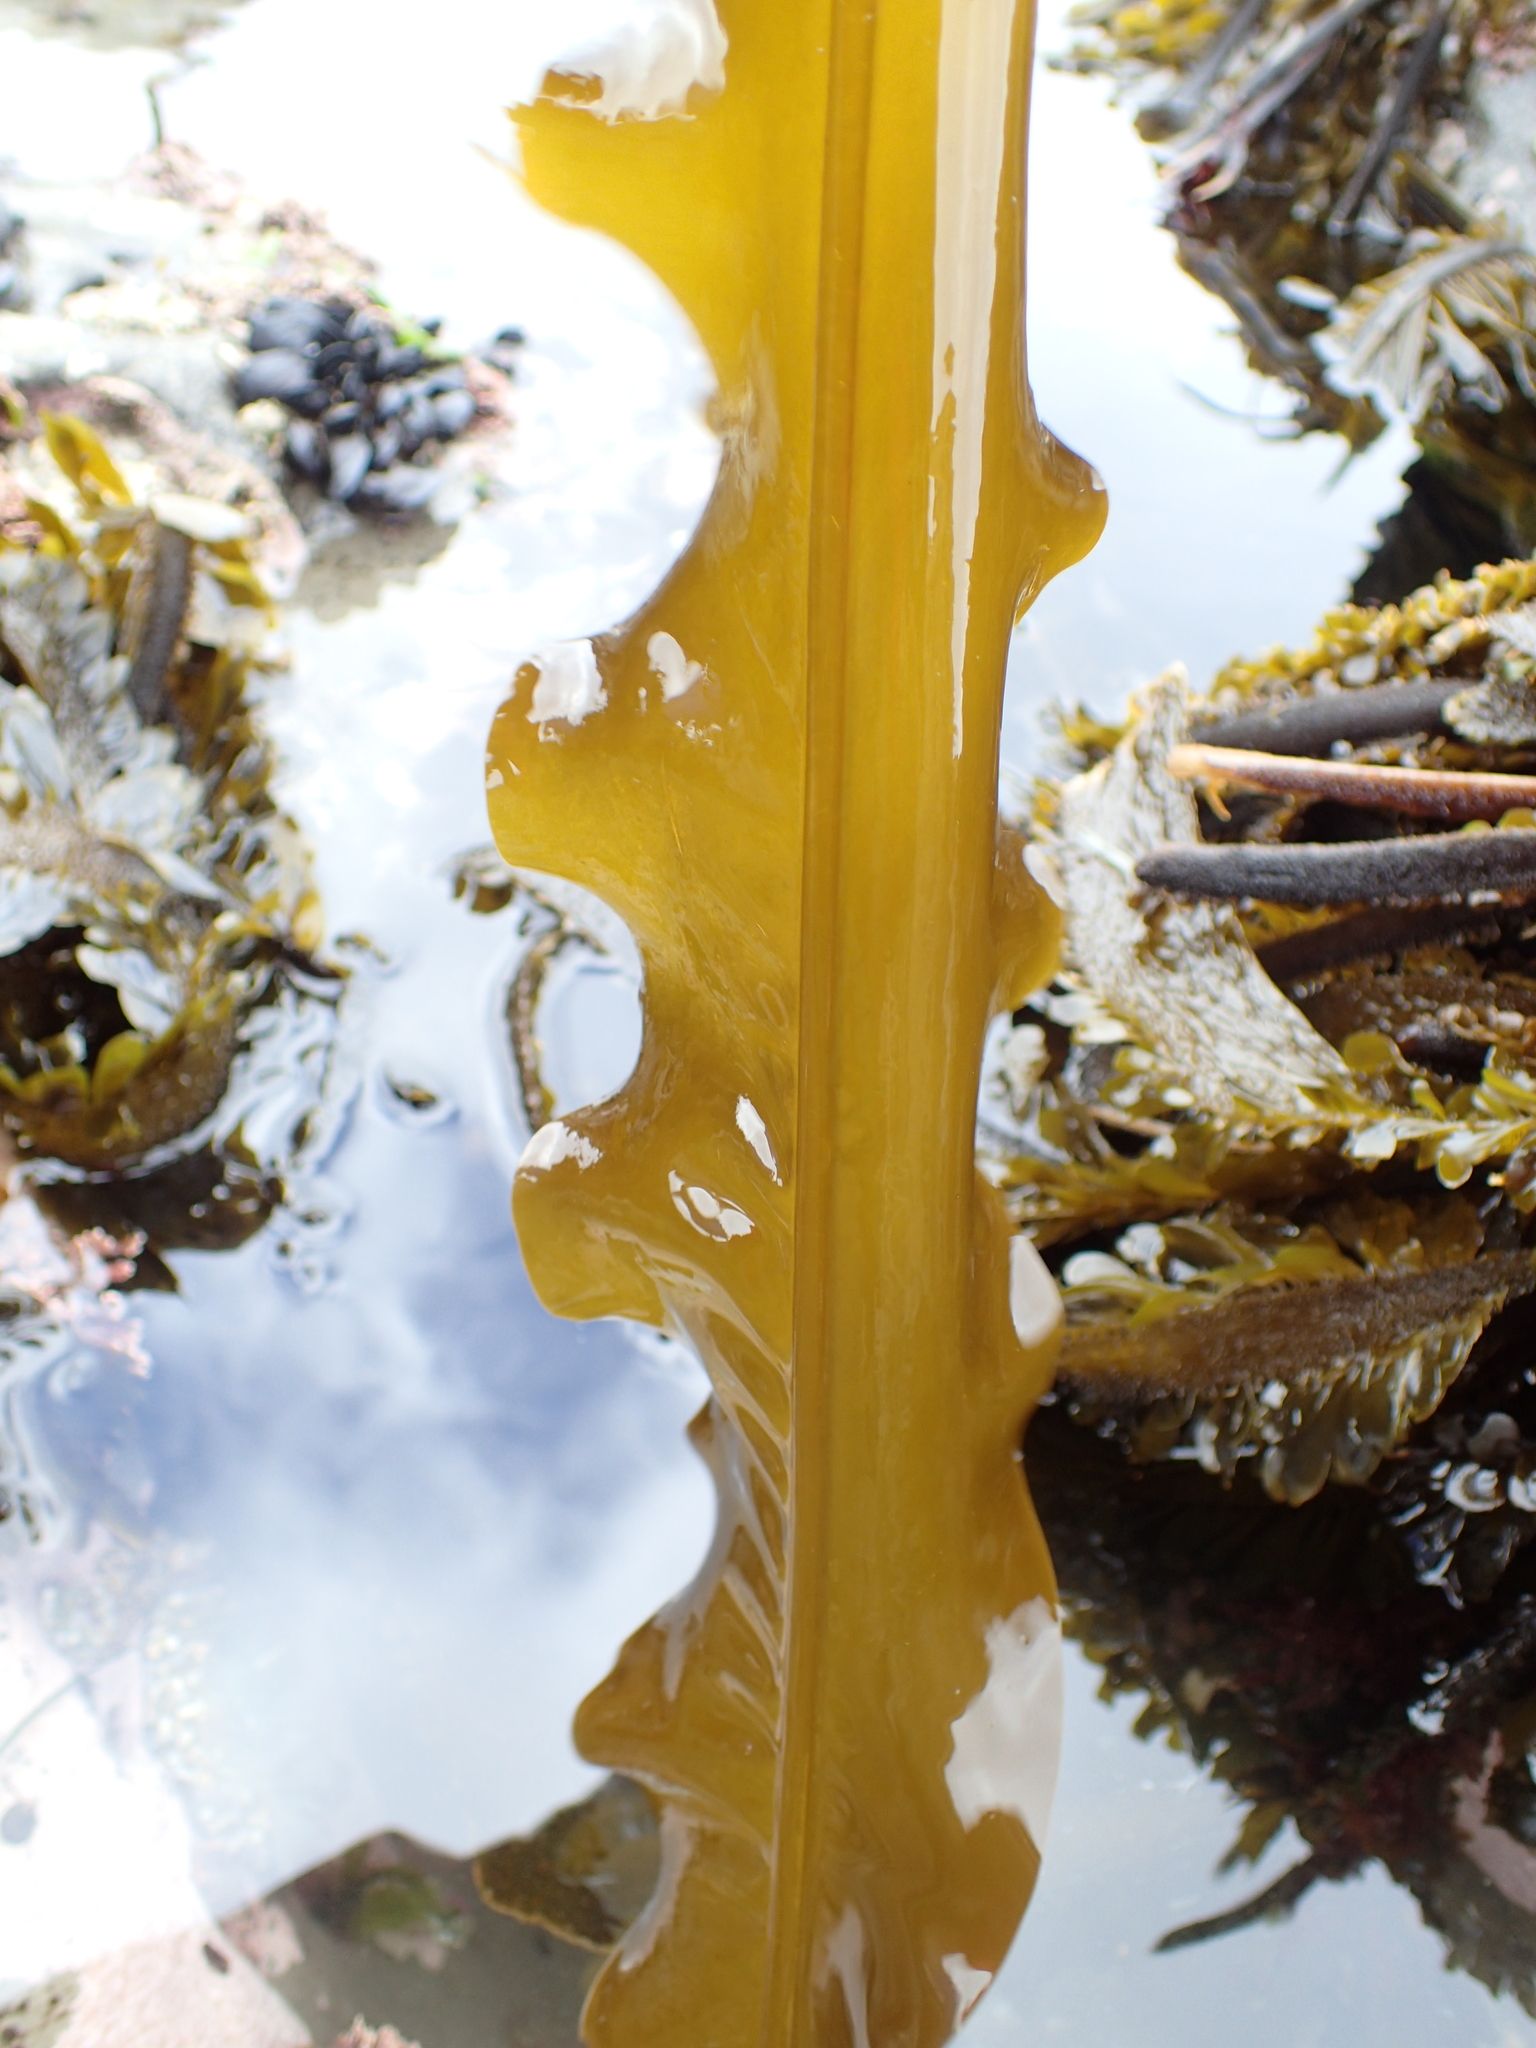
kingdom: Chromista
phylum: Ochrophyta
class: Phaeophyceae
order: Laminariales
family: Alariaceae
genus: Alaria
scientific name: Alaria marginata
